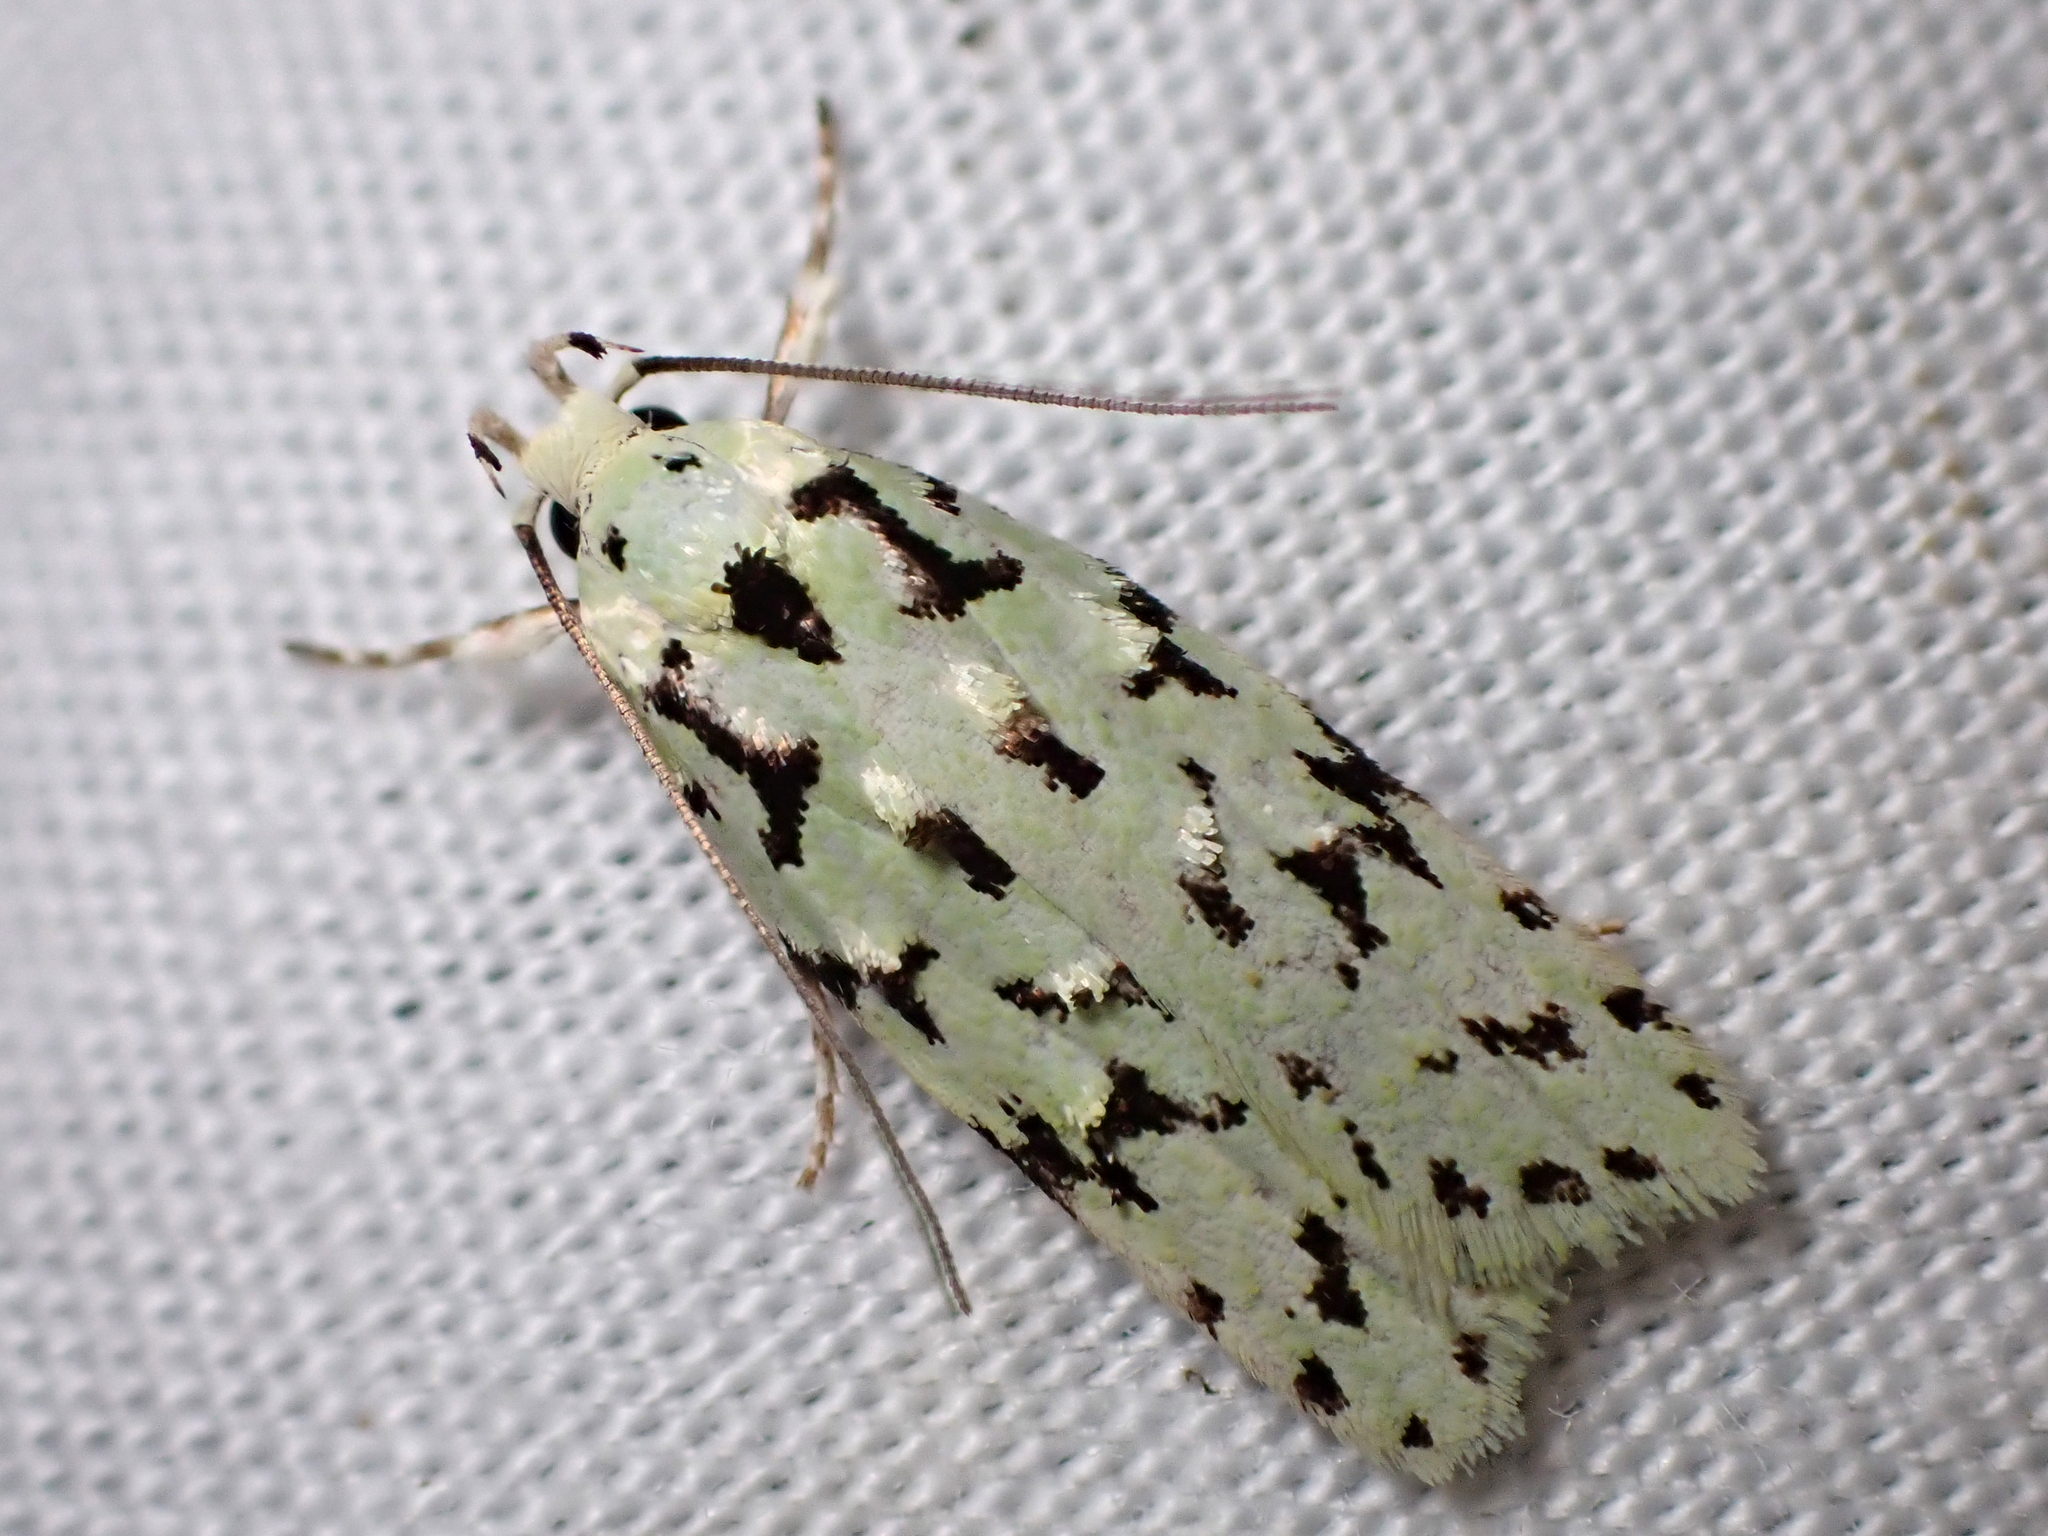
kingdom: Animalia
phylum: Arthropoda
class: Insecta
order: Lepidoptera
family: Oecophoridae
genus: Izatha
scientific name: Izatha peroneanella
